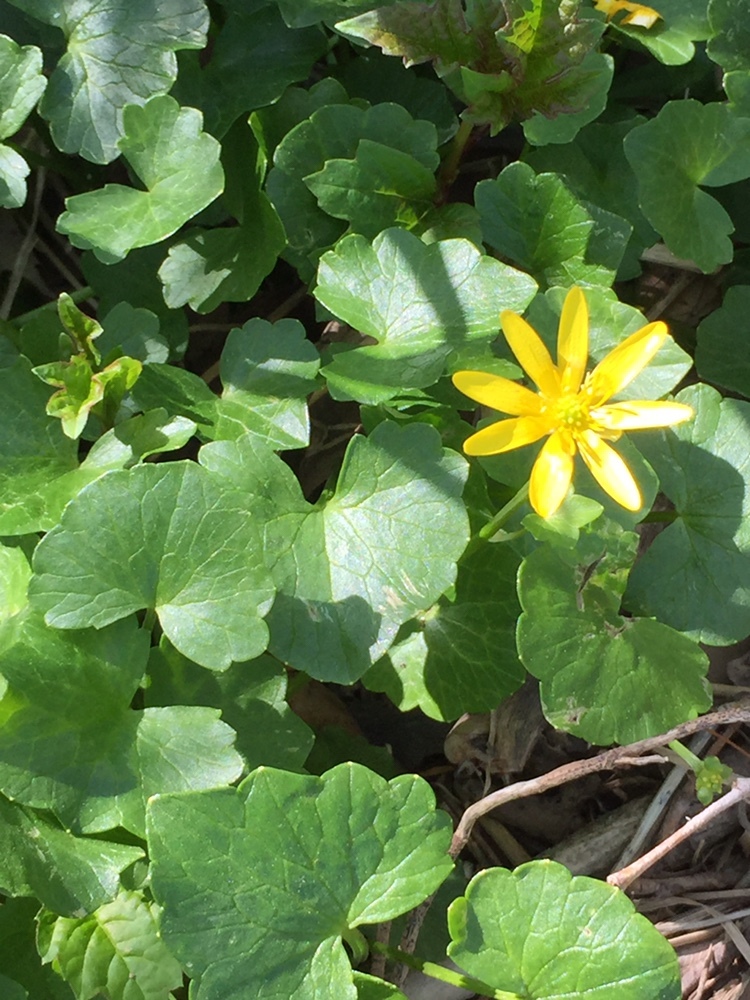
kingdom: Plantae
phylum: Tracheophyta
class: Magnoliopsida
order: Ranunculales
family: Ranunculaceae
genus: Ficaria
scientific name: Ficaria verna
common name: Lesser celandine
